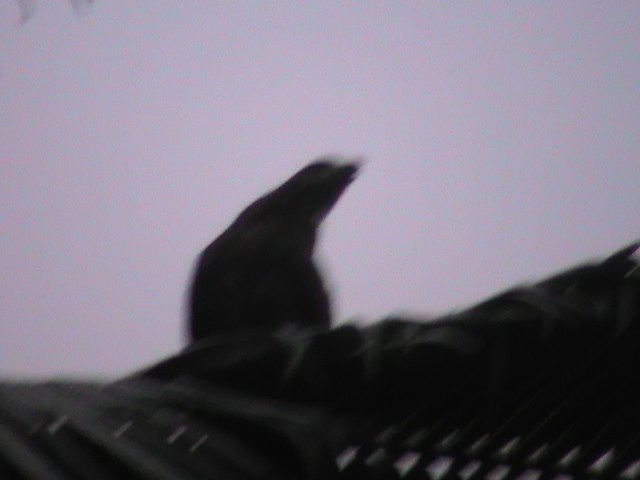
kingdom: Animalia
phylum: Chordata
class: Aves
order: Accipitriformes
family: Accipitridae
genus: Milvus
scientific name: Milvus migrans
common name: Black kite
